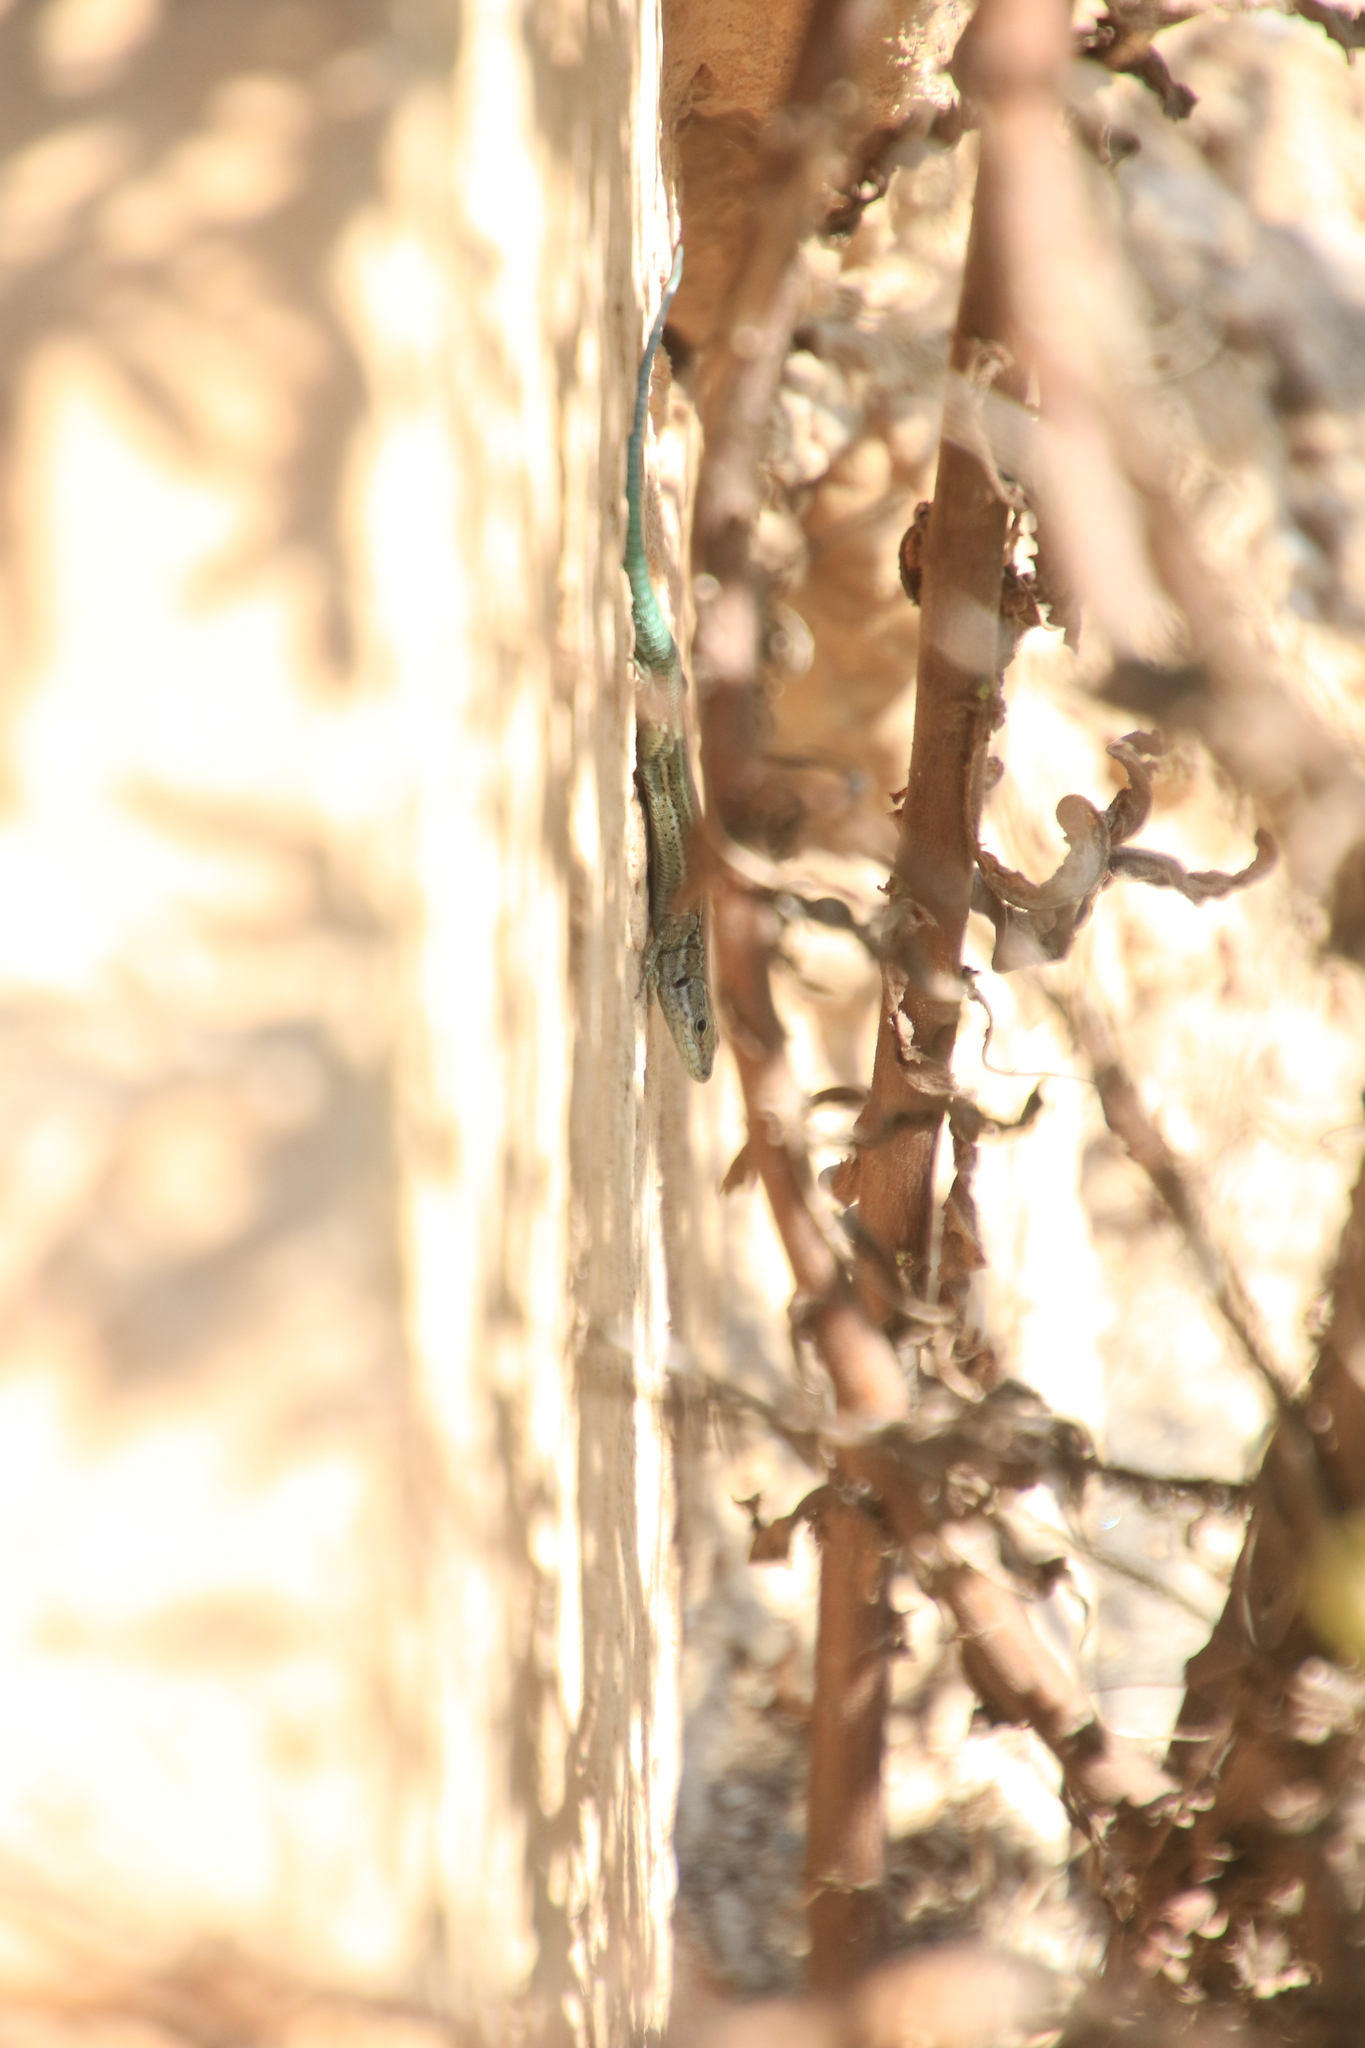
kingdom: Animalia
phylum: Chordata
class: Squamata
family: Lacertidae
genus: Podarcis
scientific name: Podarcis vaucheri
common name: Vaucher's wall lizard
